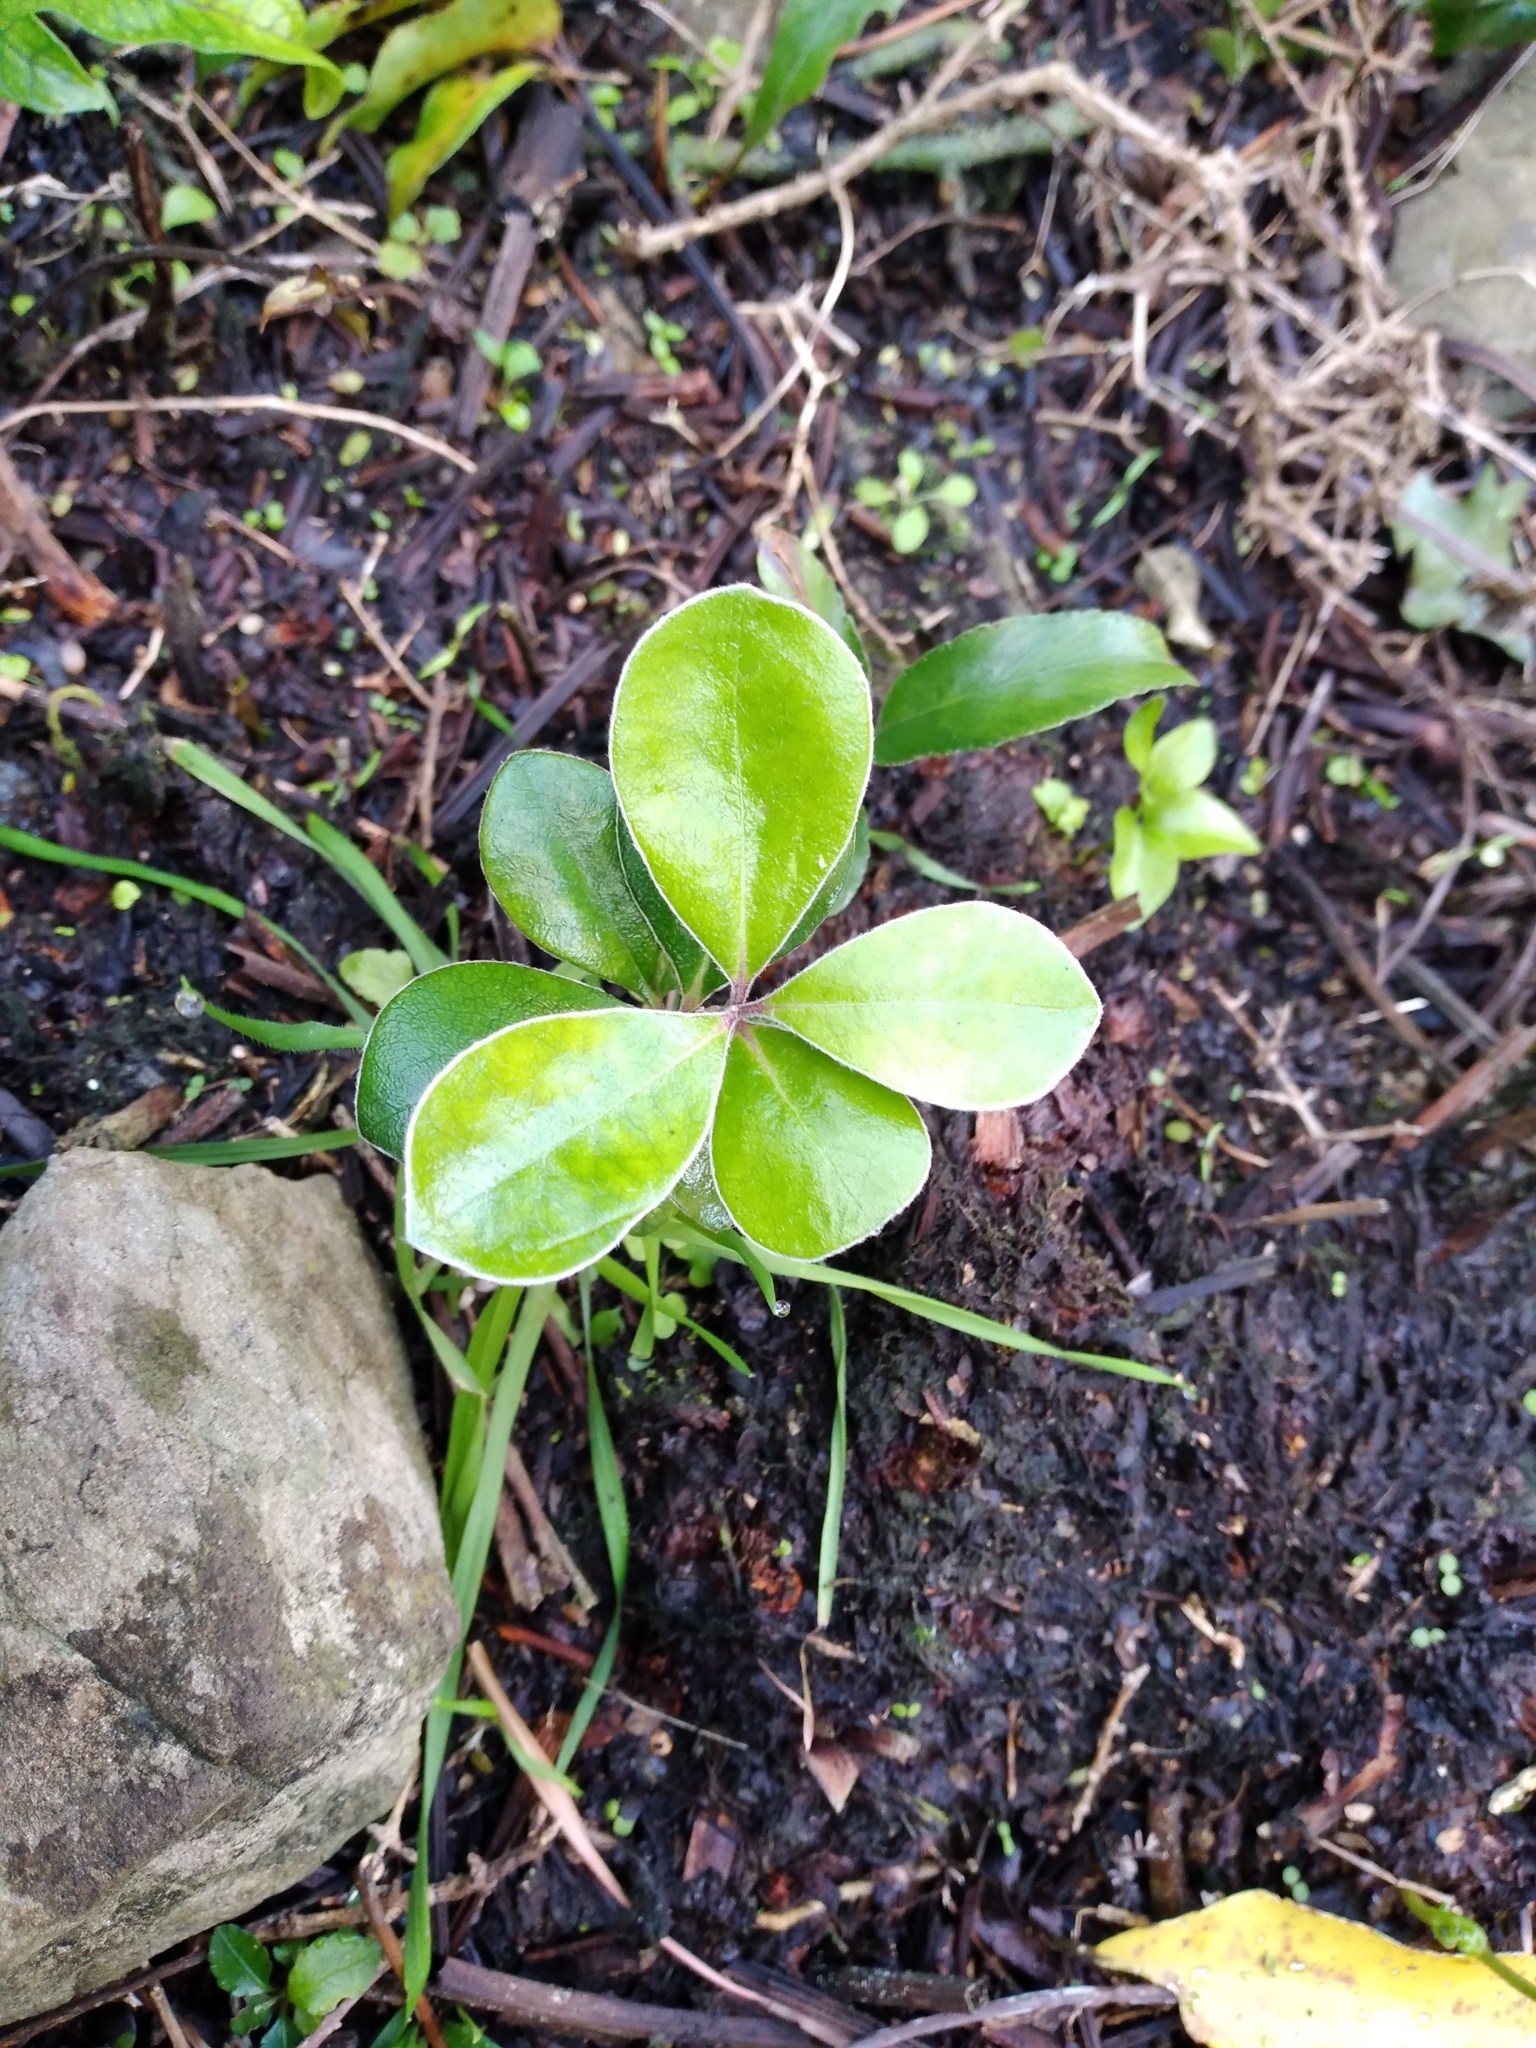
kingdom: Plantae
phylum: Tracheophyta
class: Magnoliopsida
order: Apiales
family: Pittosporaceae
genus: Pittosporum
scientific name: Pittosporum crassifolium
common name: Karo
